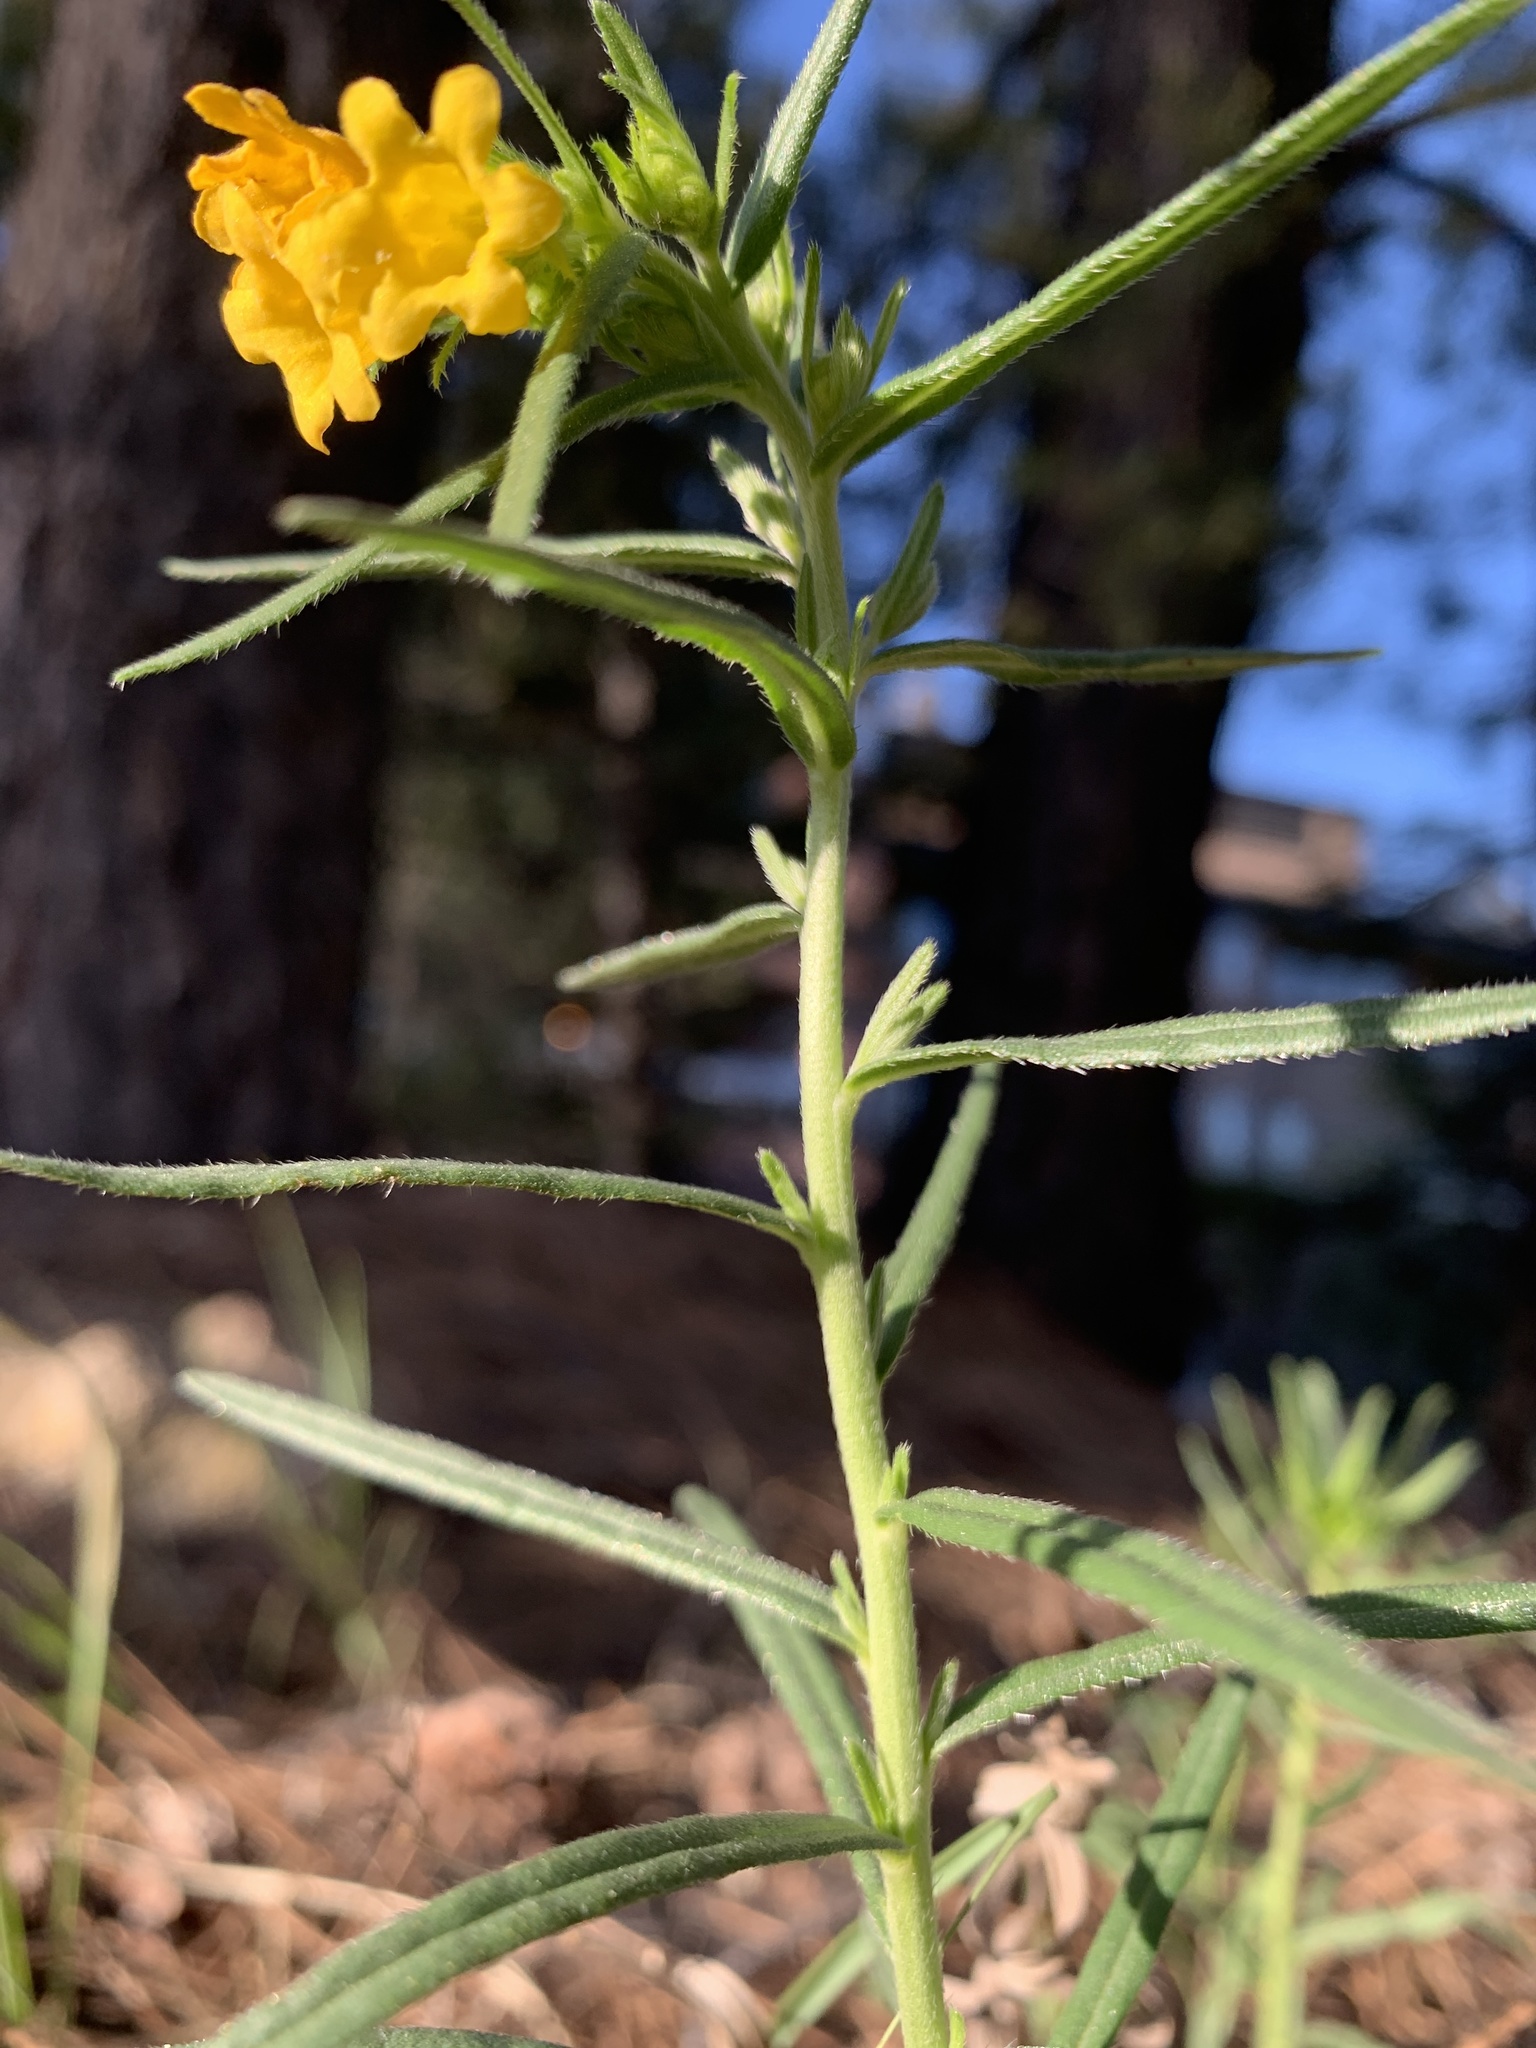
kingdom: Plantae
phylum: Tracheophyta
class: Magnoliopsida
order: Boraginales
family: Boraginaceae
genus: Lithospermum
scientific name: Lithospermum multiflorum
